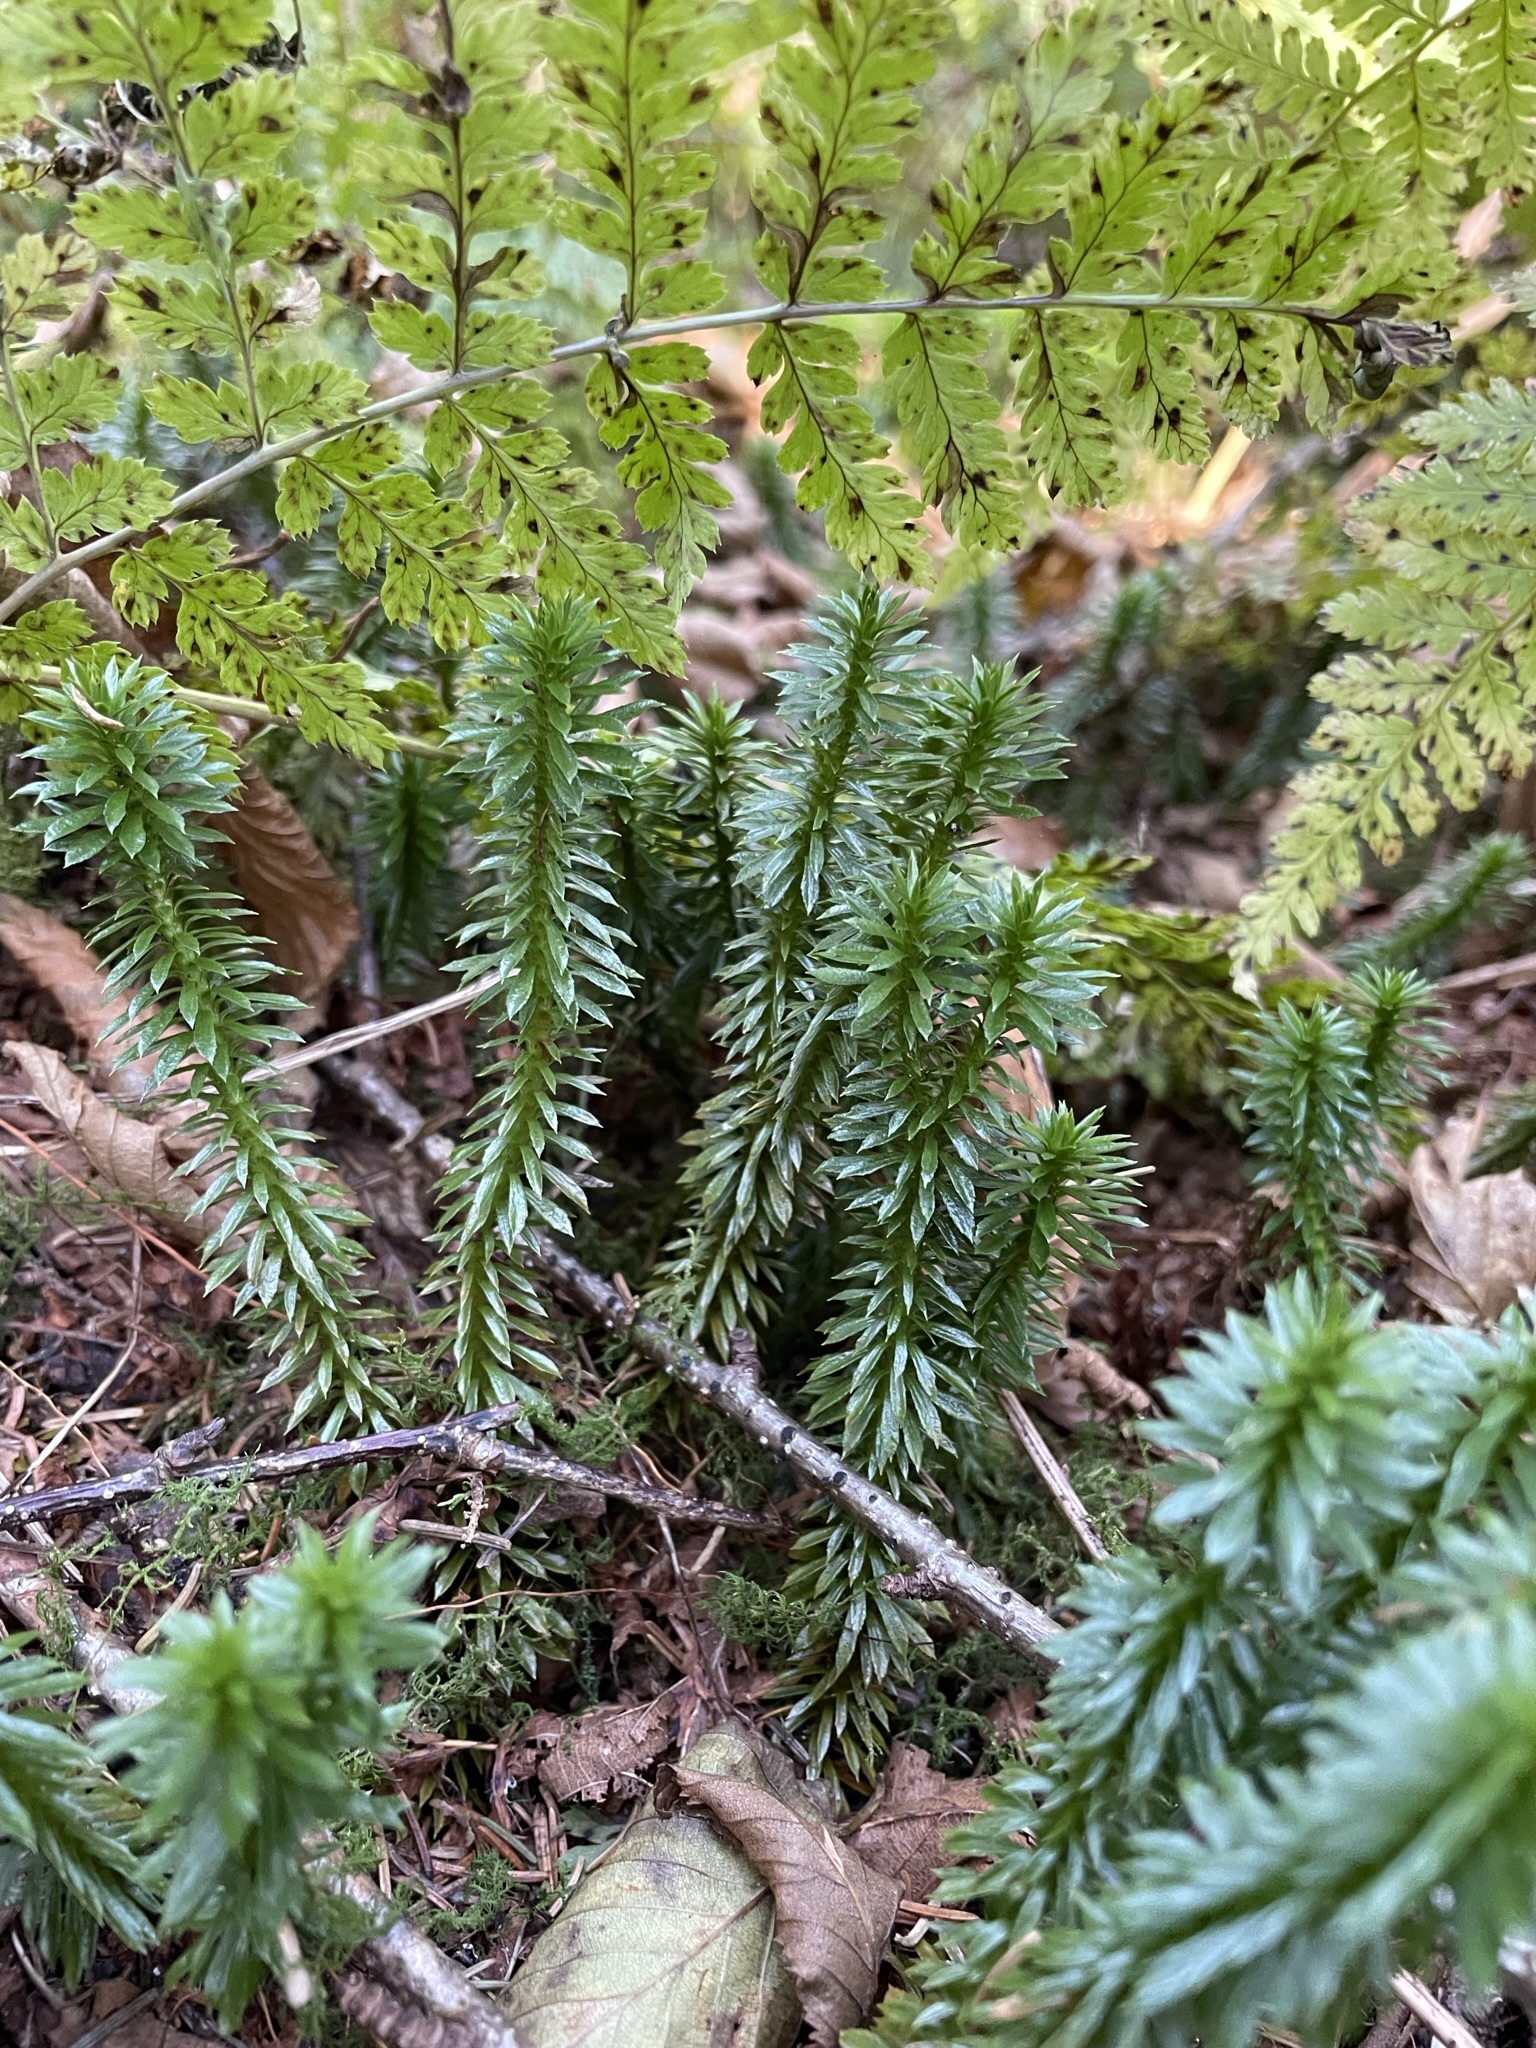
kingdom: Plantae
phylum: Tracheophyta
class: Lycopodiopsida
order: Lycopodiales
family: Lycopodiaceae
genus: Huperzia
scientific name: Huperzia lucidula
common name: Shining clubmoss
